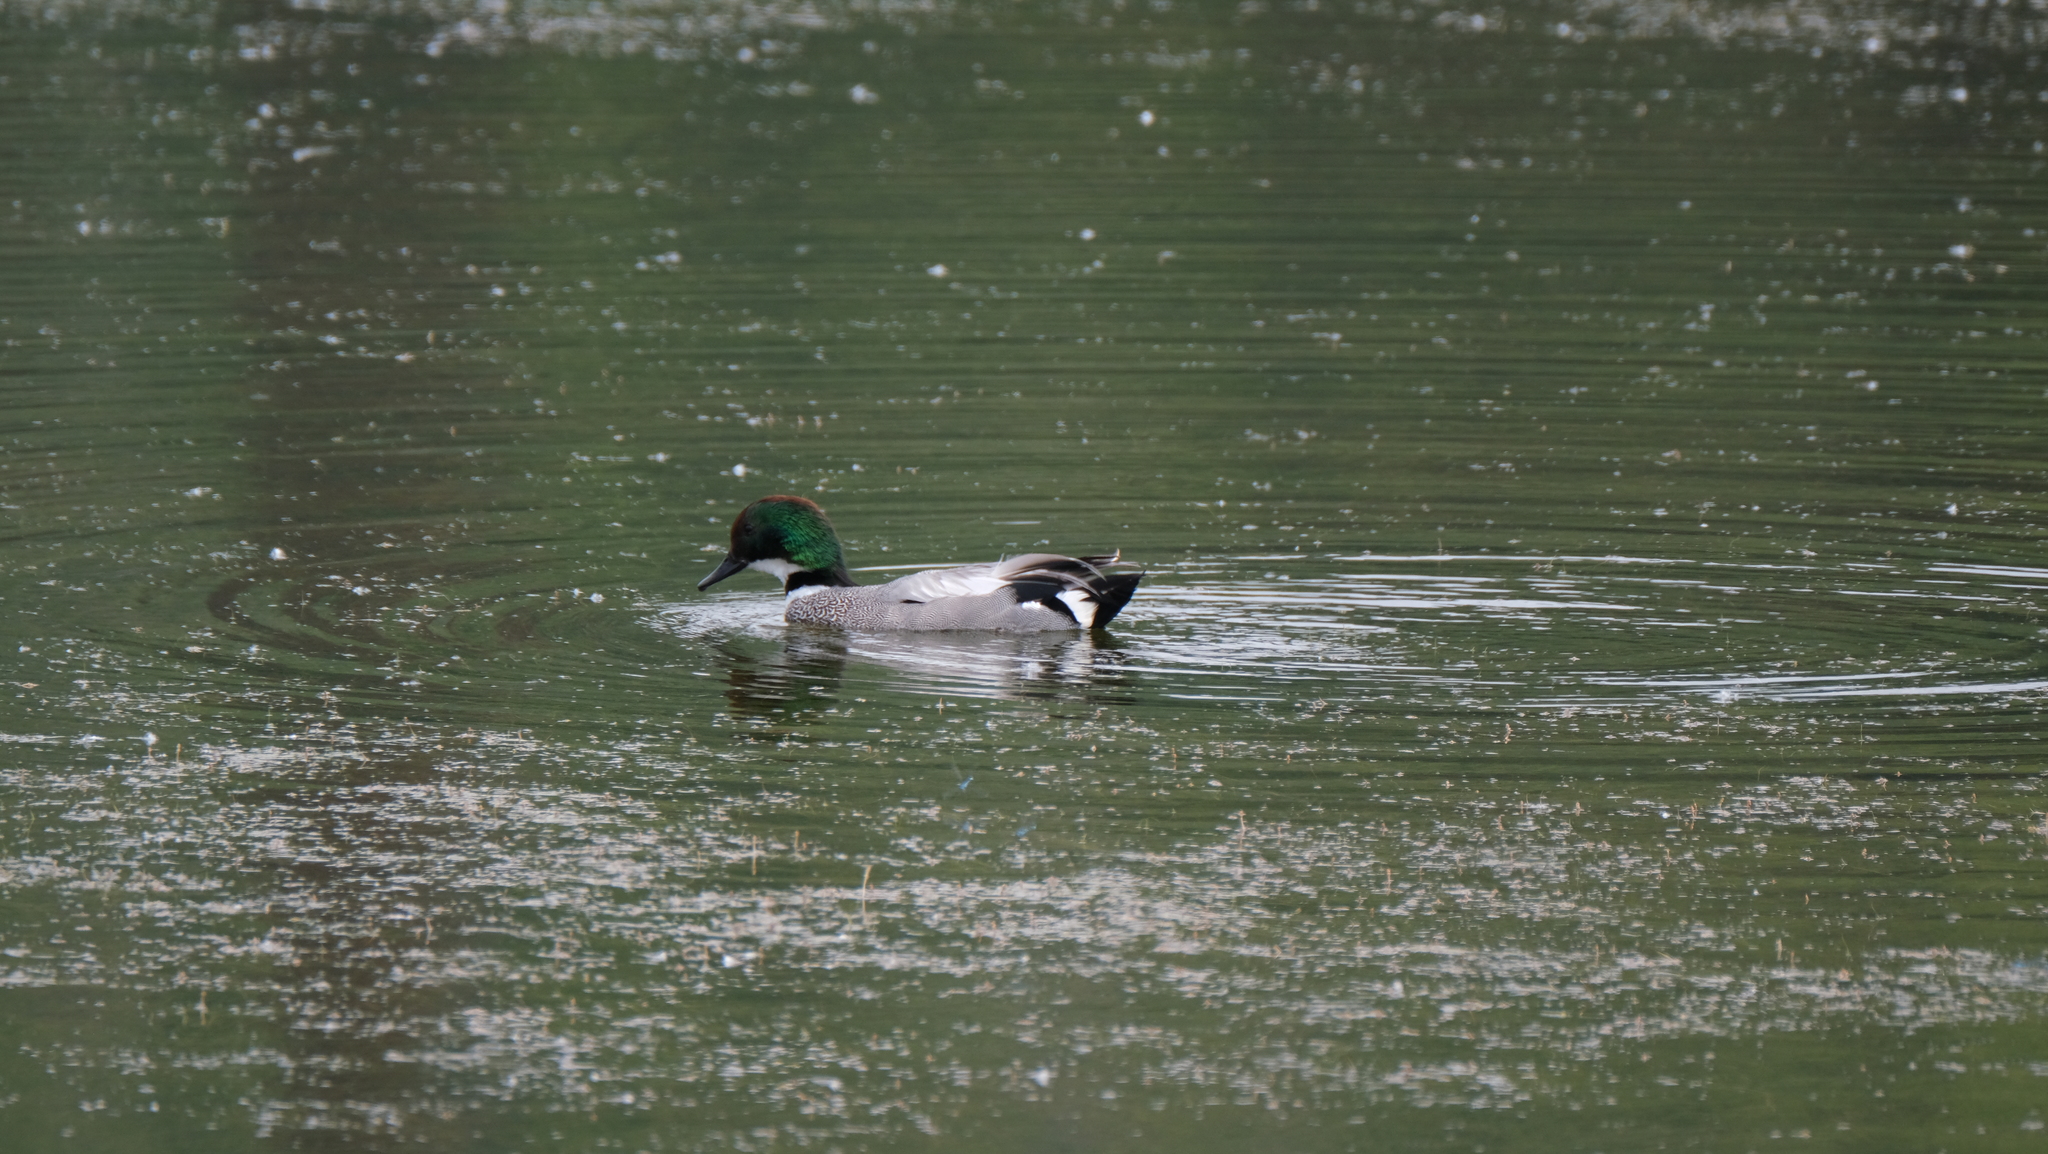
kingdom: Animalia
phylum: Chordata
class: Aves
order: Anseriformes
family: Anatidae
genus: Mareca
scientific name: Mareca falcata
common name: Falcated duck
